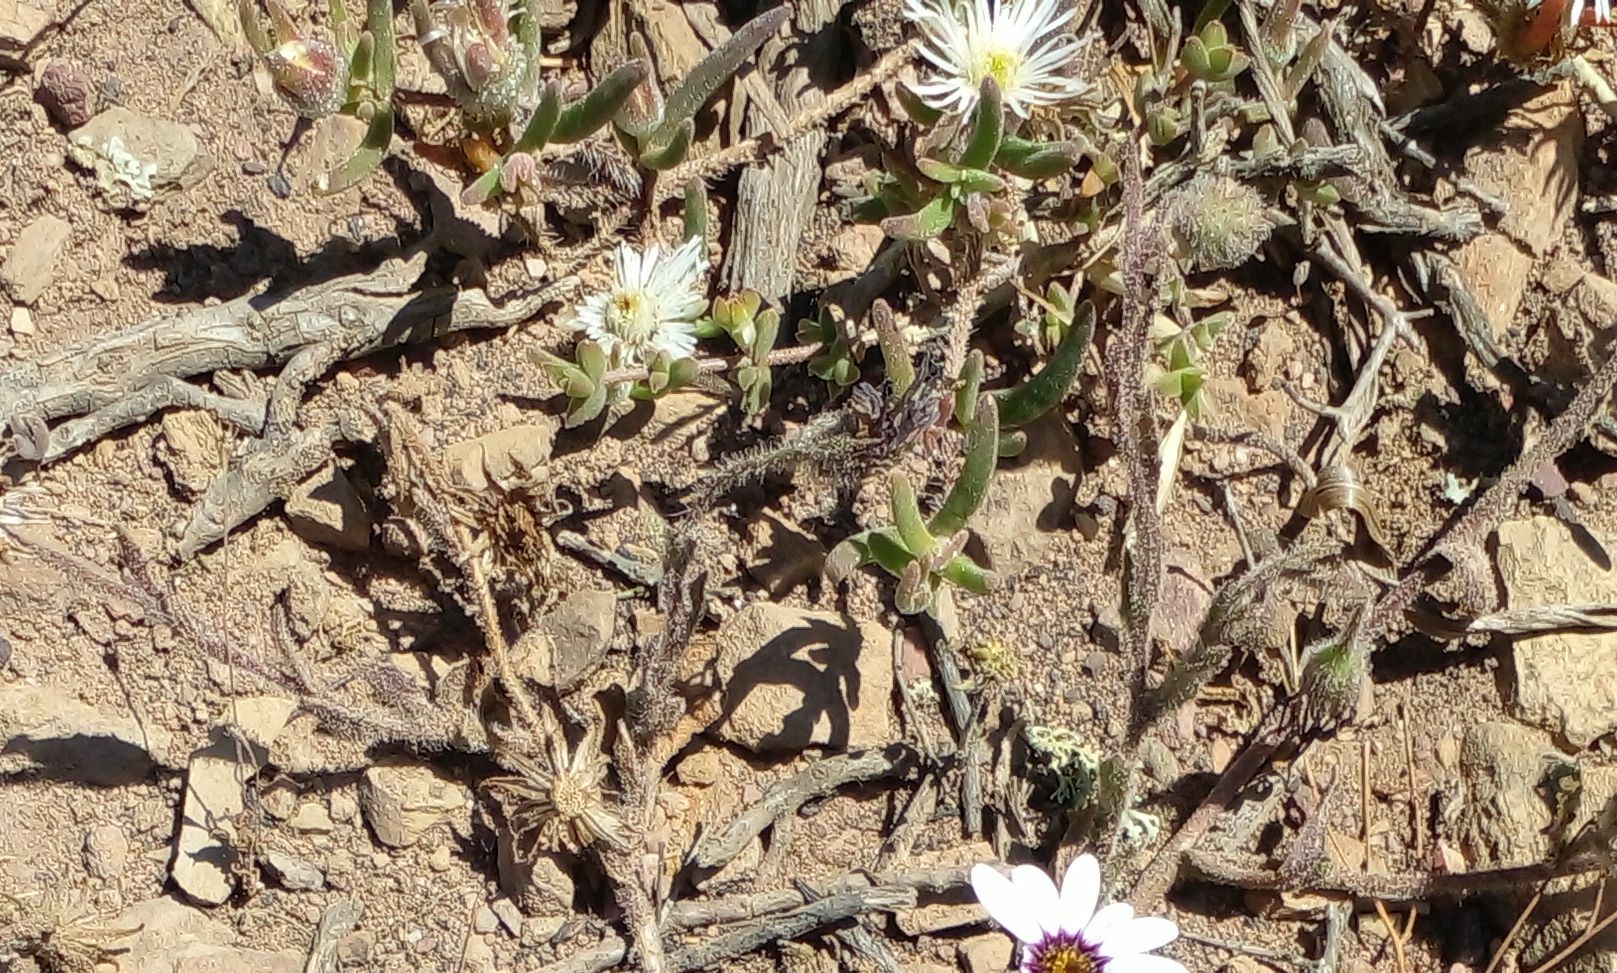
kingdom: Plantae
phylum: Tracheophyta
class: Magnoliopsida
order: Asterales
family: Asteraceae
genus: Dimorphotheca
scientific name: Dimorphotheca pluvialis
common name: Weather prophet
